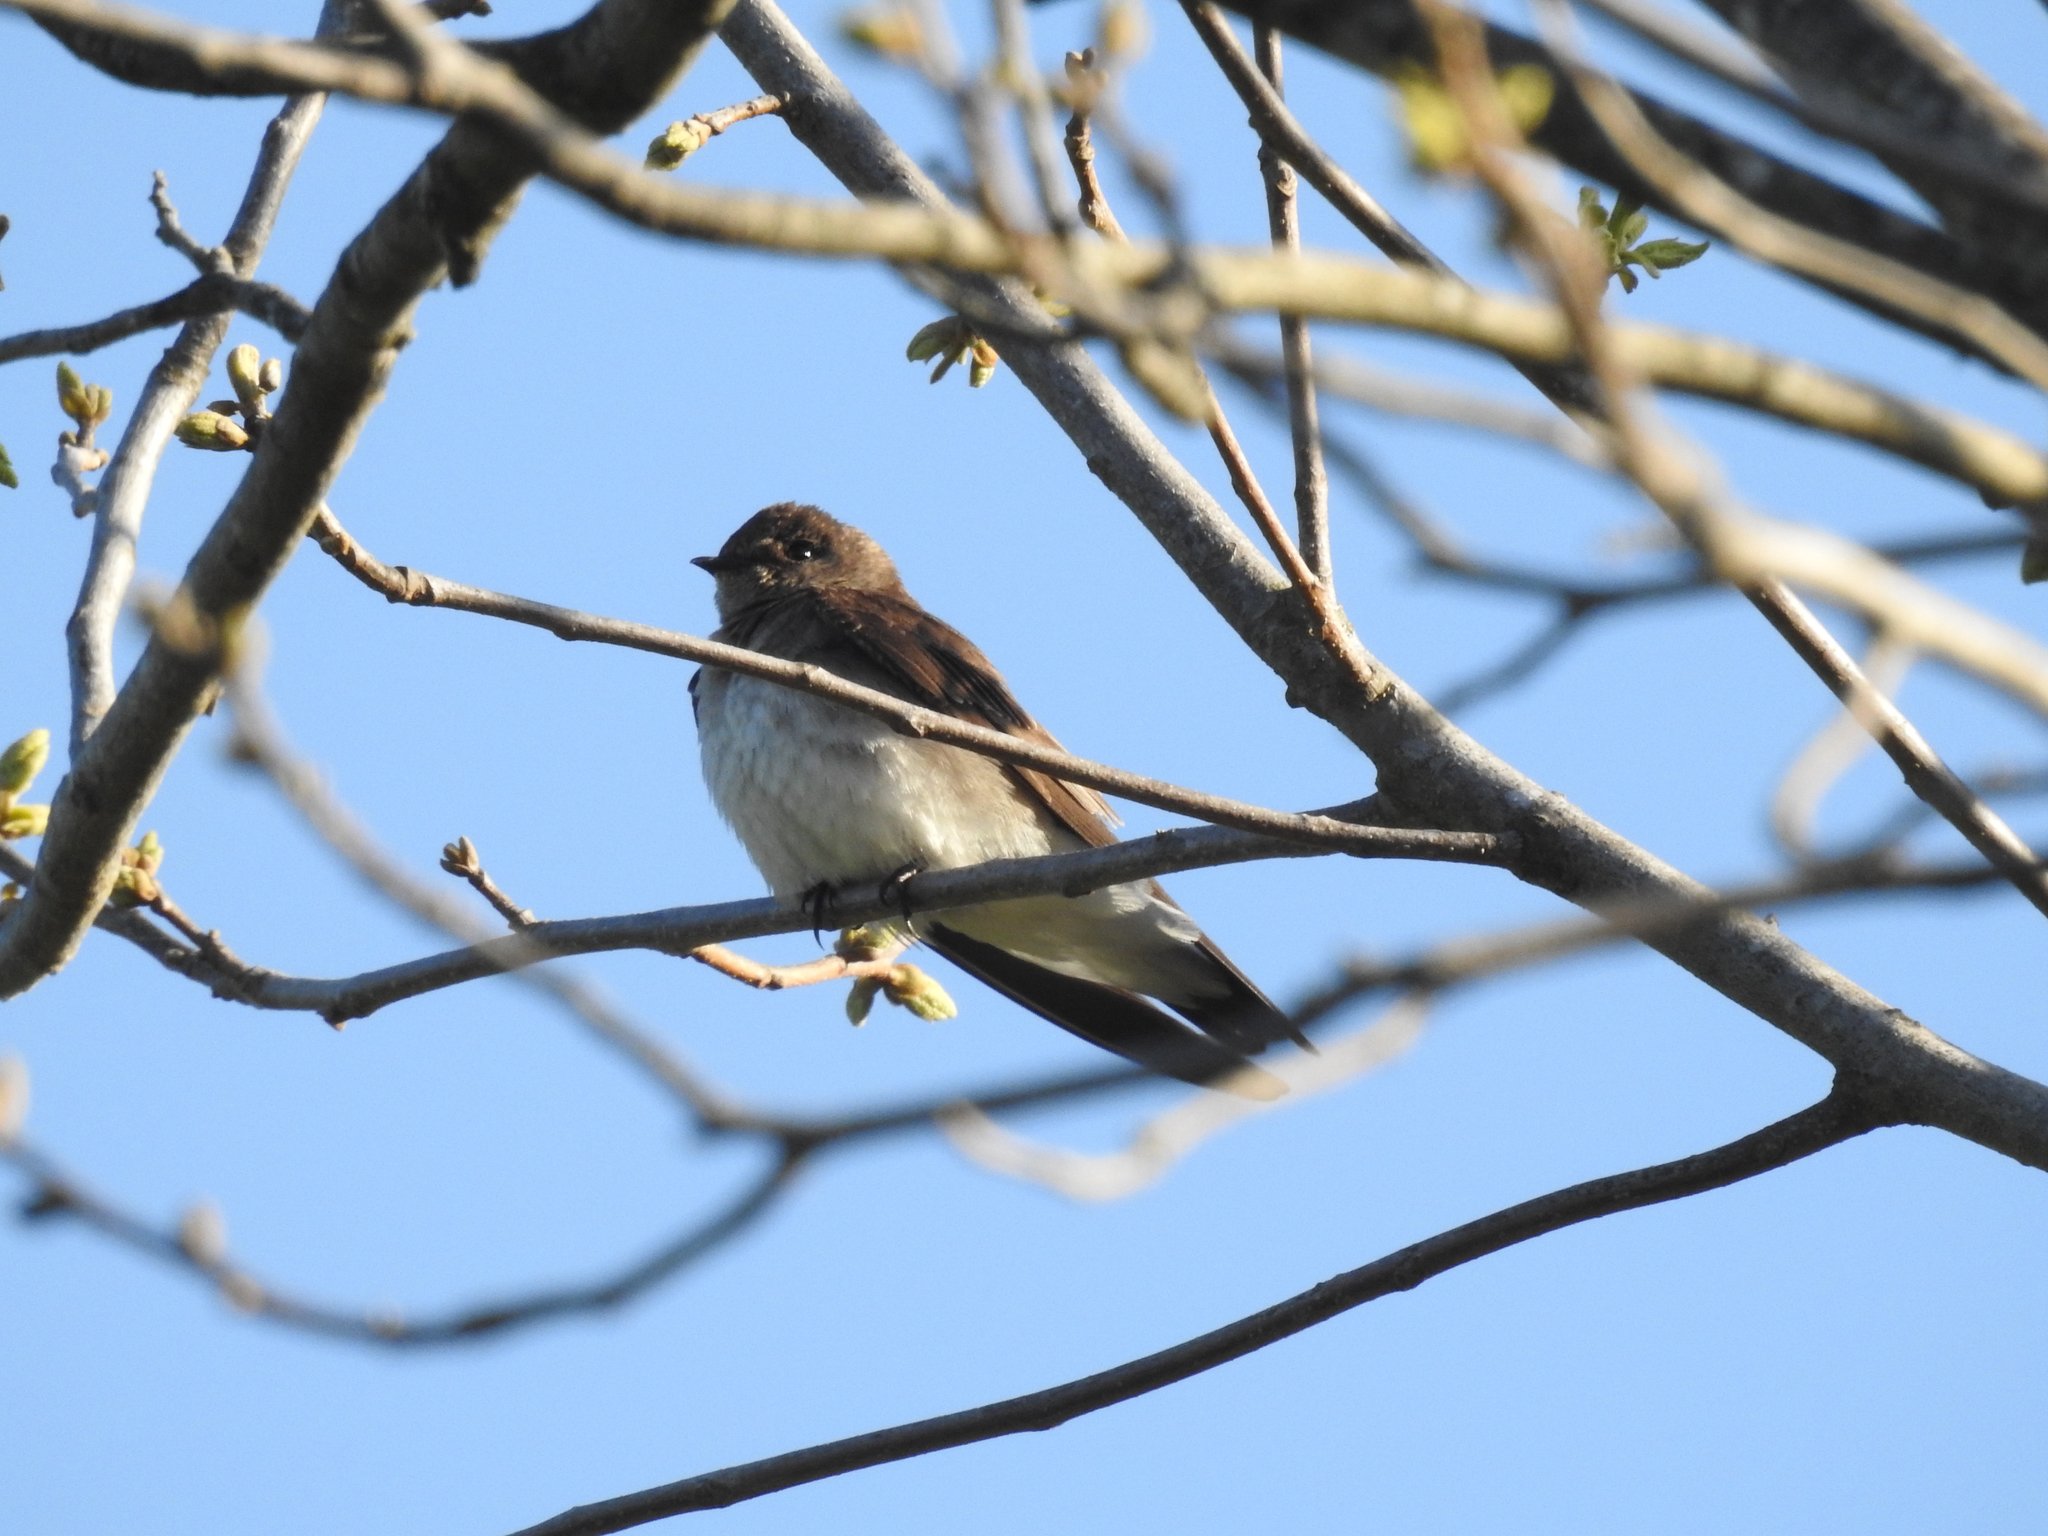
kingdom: Animalia
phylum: Chordata
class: Aves
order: Passeriformes
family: Hirundinidae
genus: Stelgidopteryx
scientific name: Stelgidopteryx serripennis
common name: Northern rough-winged swallow
